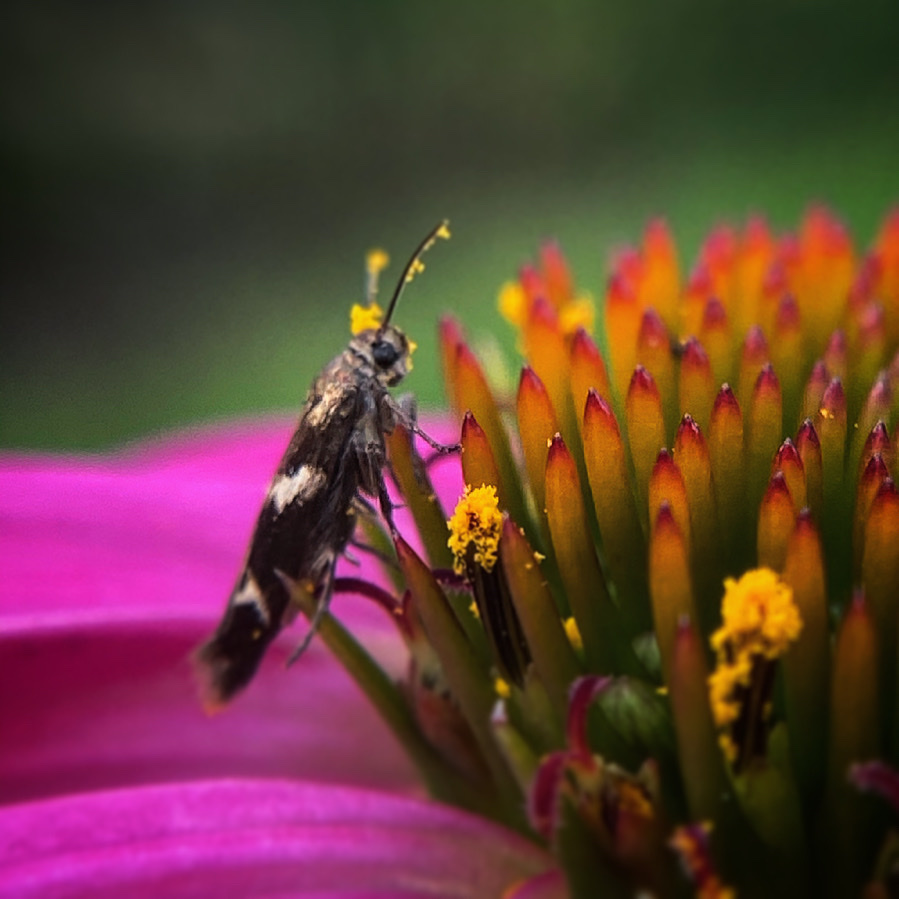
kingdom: Animalia
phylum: Arthropoda
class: Insecta
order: Lepidoptera
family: Scythrididae
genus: Scythris
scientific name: Scythris trivinctella
